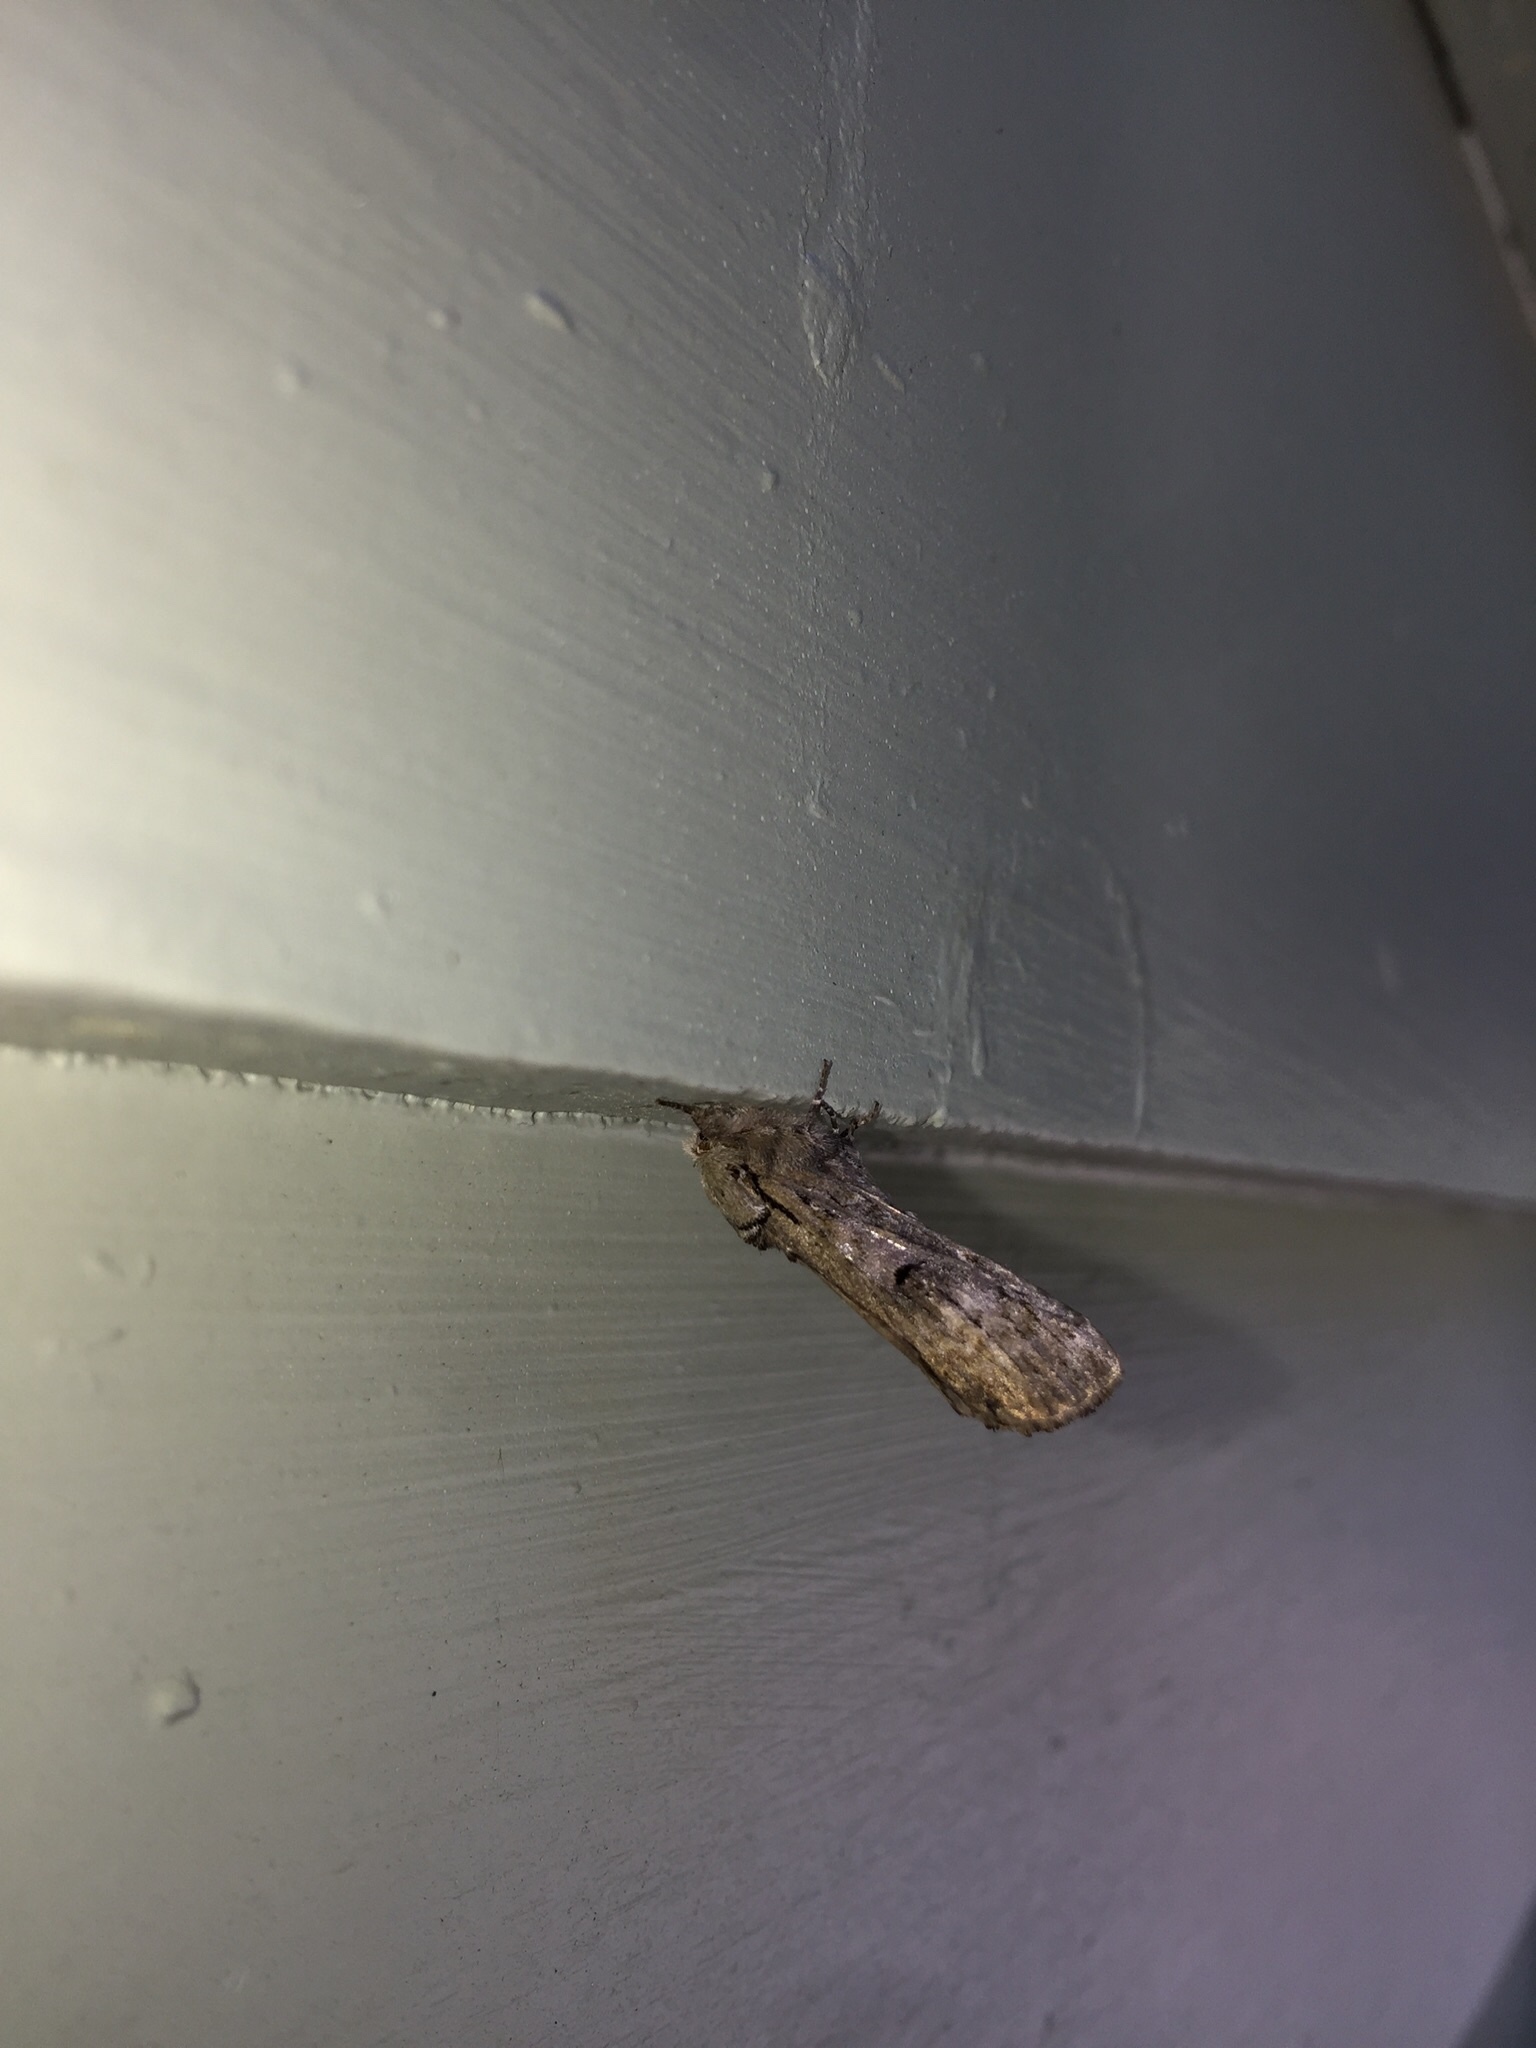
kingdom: Animalia
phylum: Arthropoda
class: Insecta
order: Lepidoptera
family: Notodontidae
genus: Schizura
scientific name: Schizura
